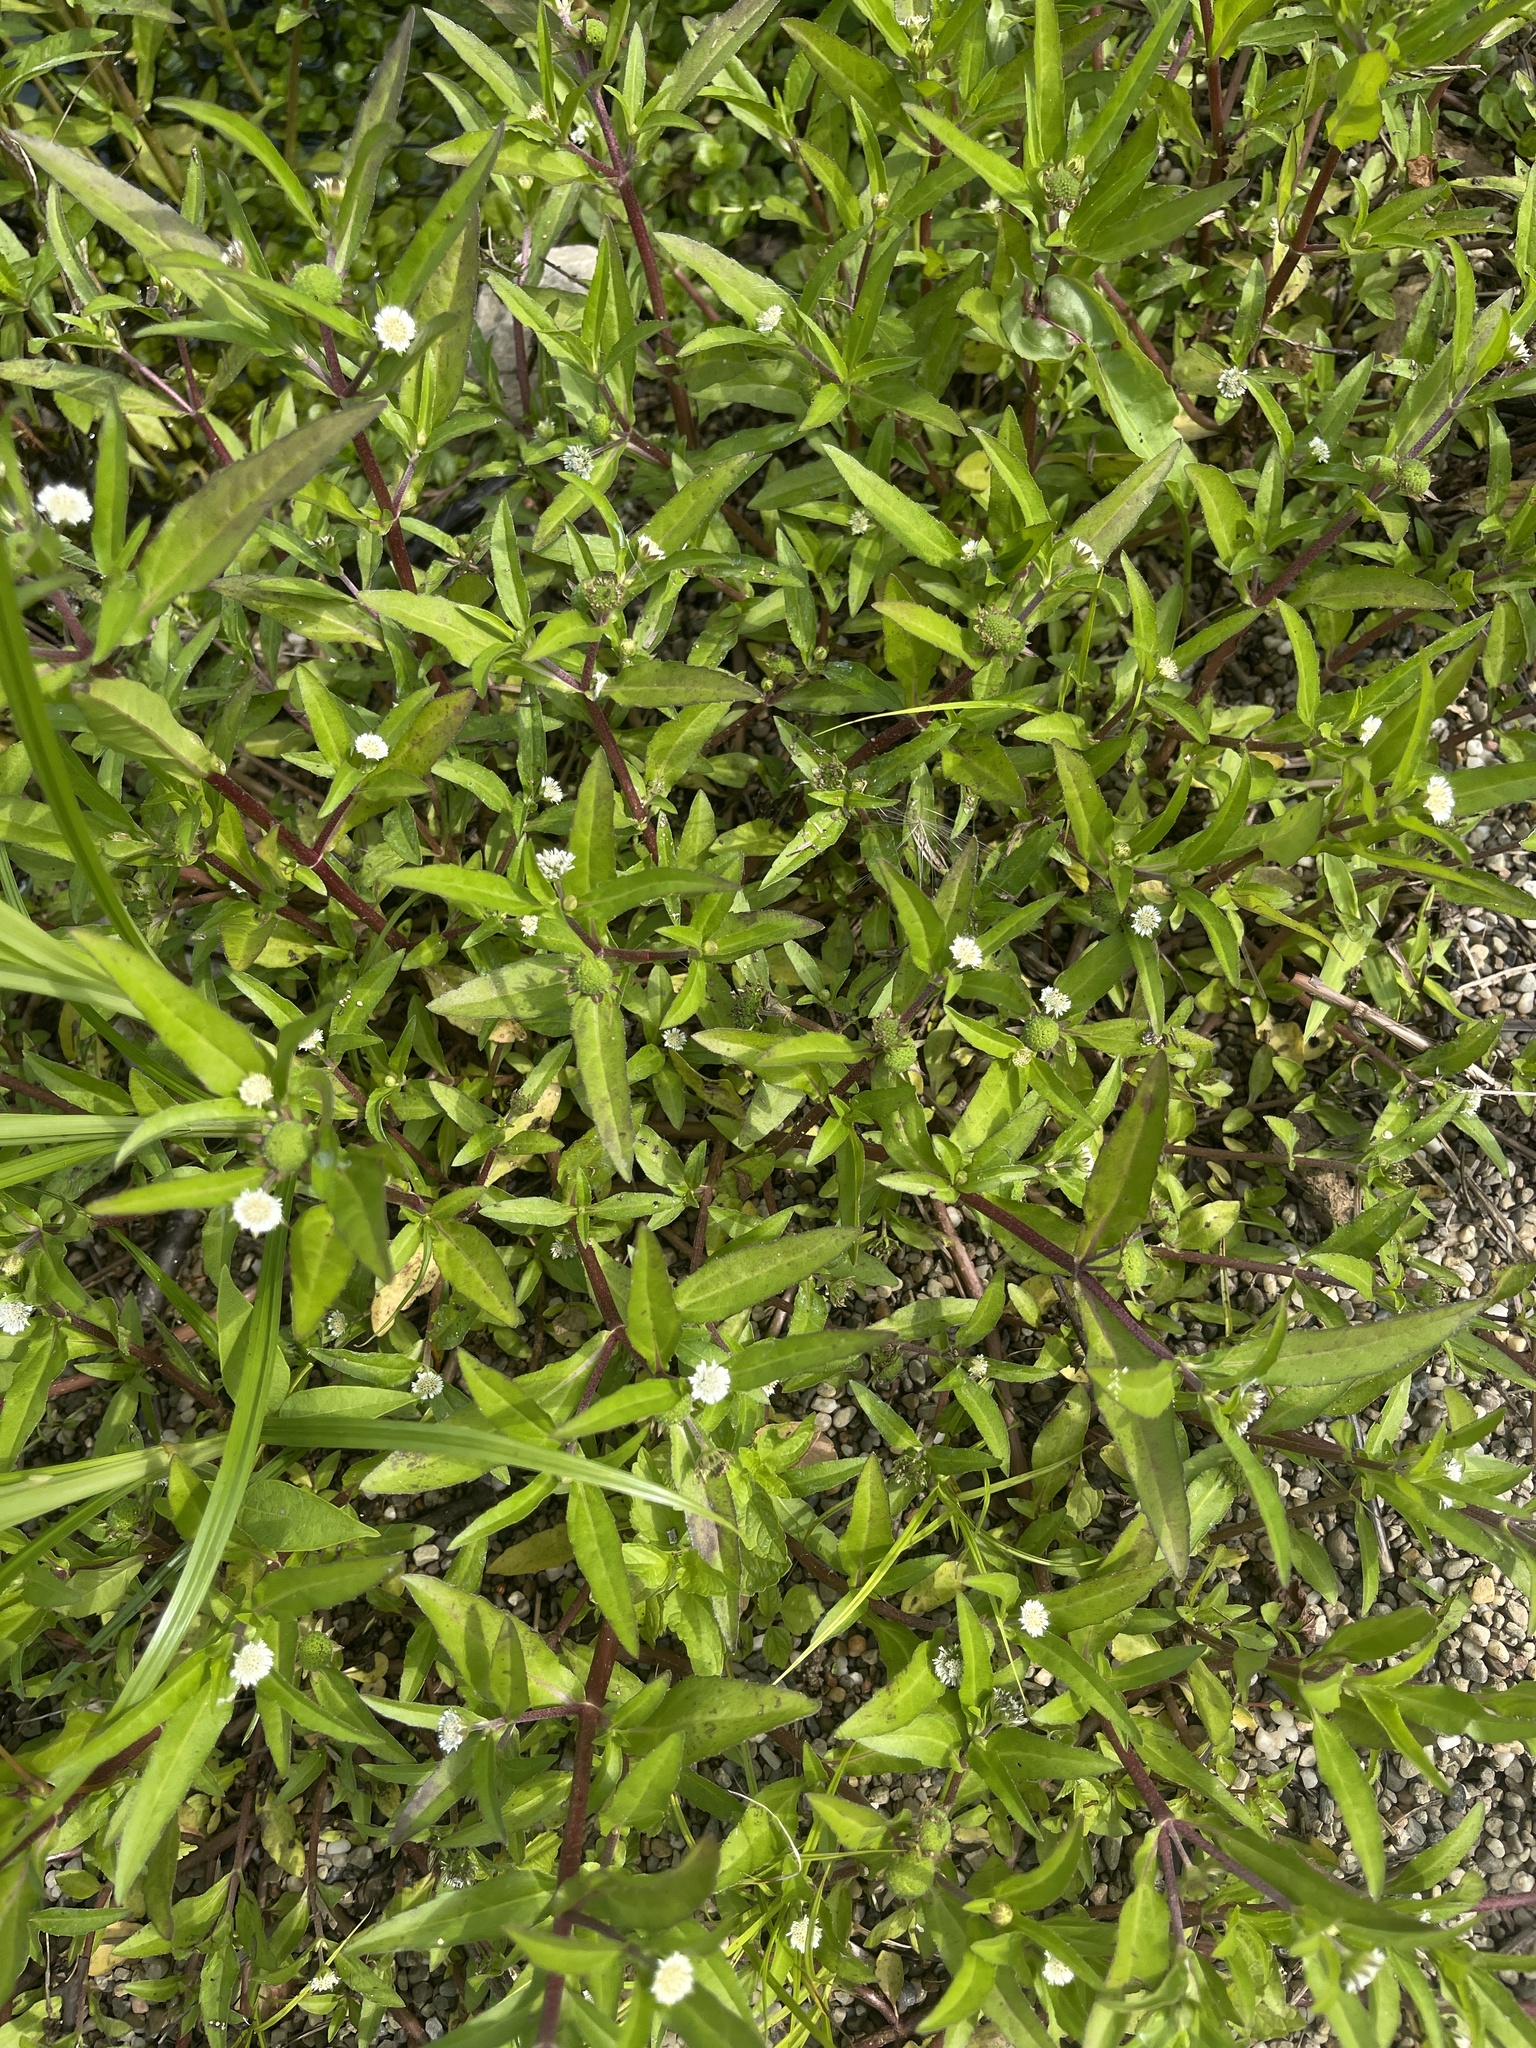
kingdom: Plantae
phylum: Tracheophyta
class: Magnoliopsida
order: Asterales
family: Asteraceae
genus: Eclipta
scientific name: Eclipta prostrata
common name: False daisy
